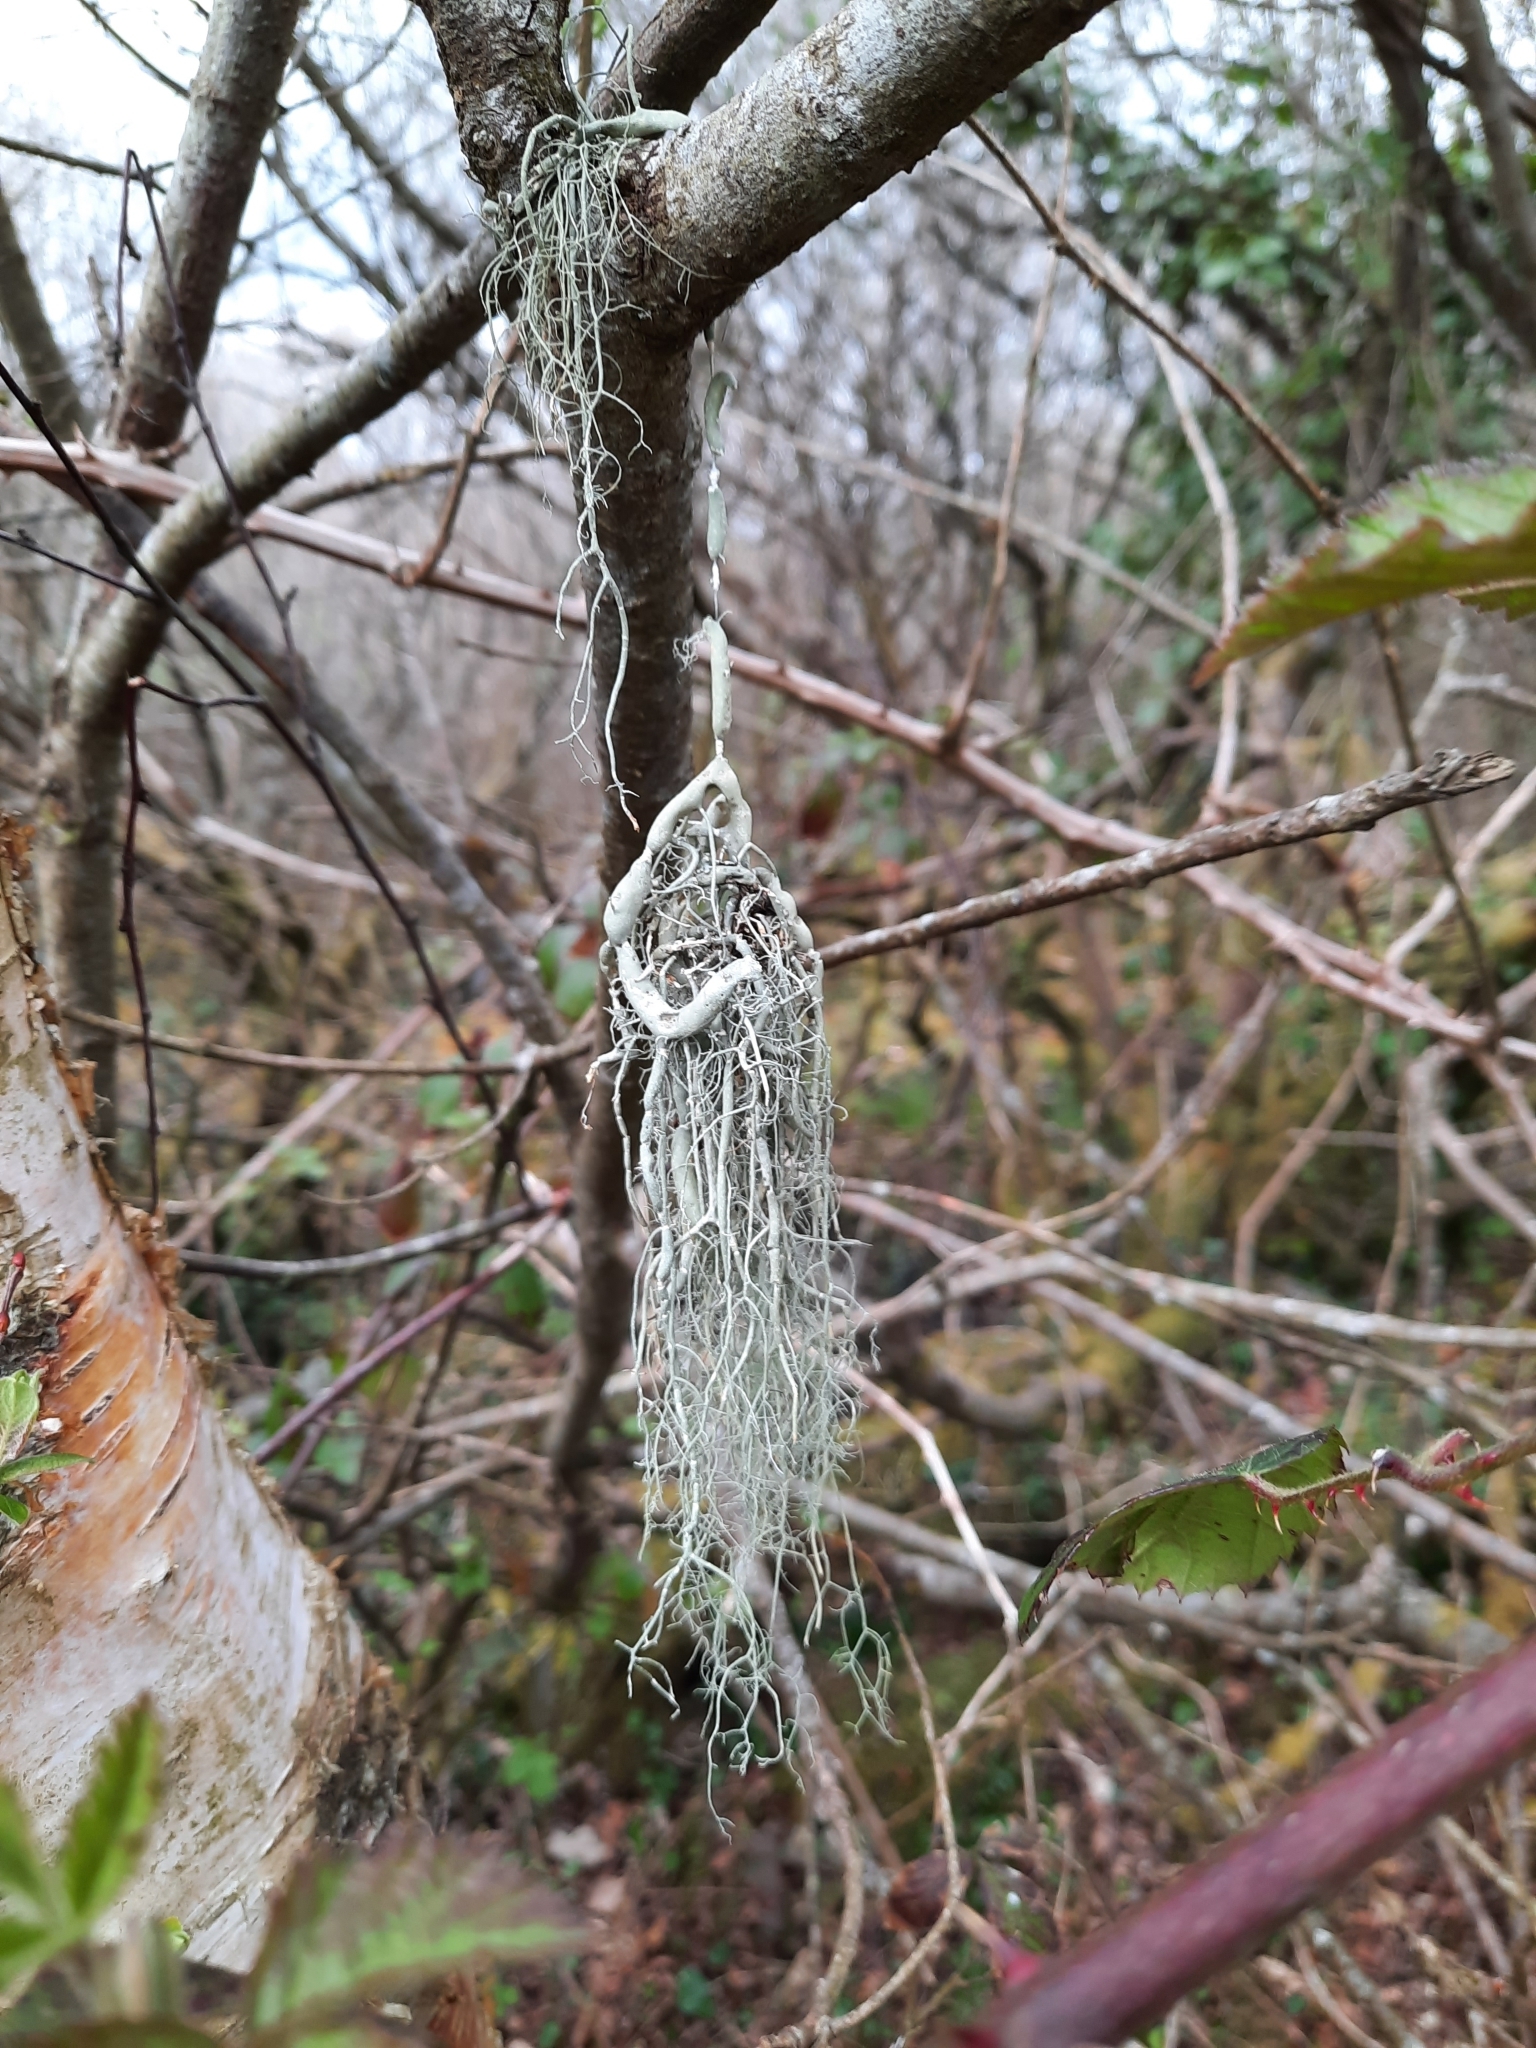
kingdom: Fungi
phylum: Ascomycota
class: Lecanoromycetes
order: Lecanorales
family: Parmeliaceae
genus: Usnea
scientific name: Usnea articulata
